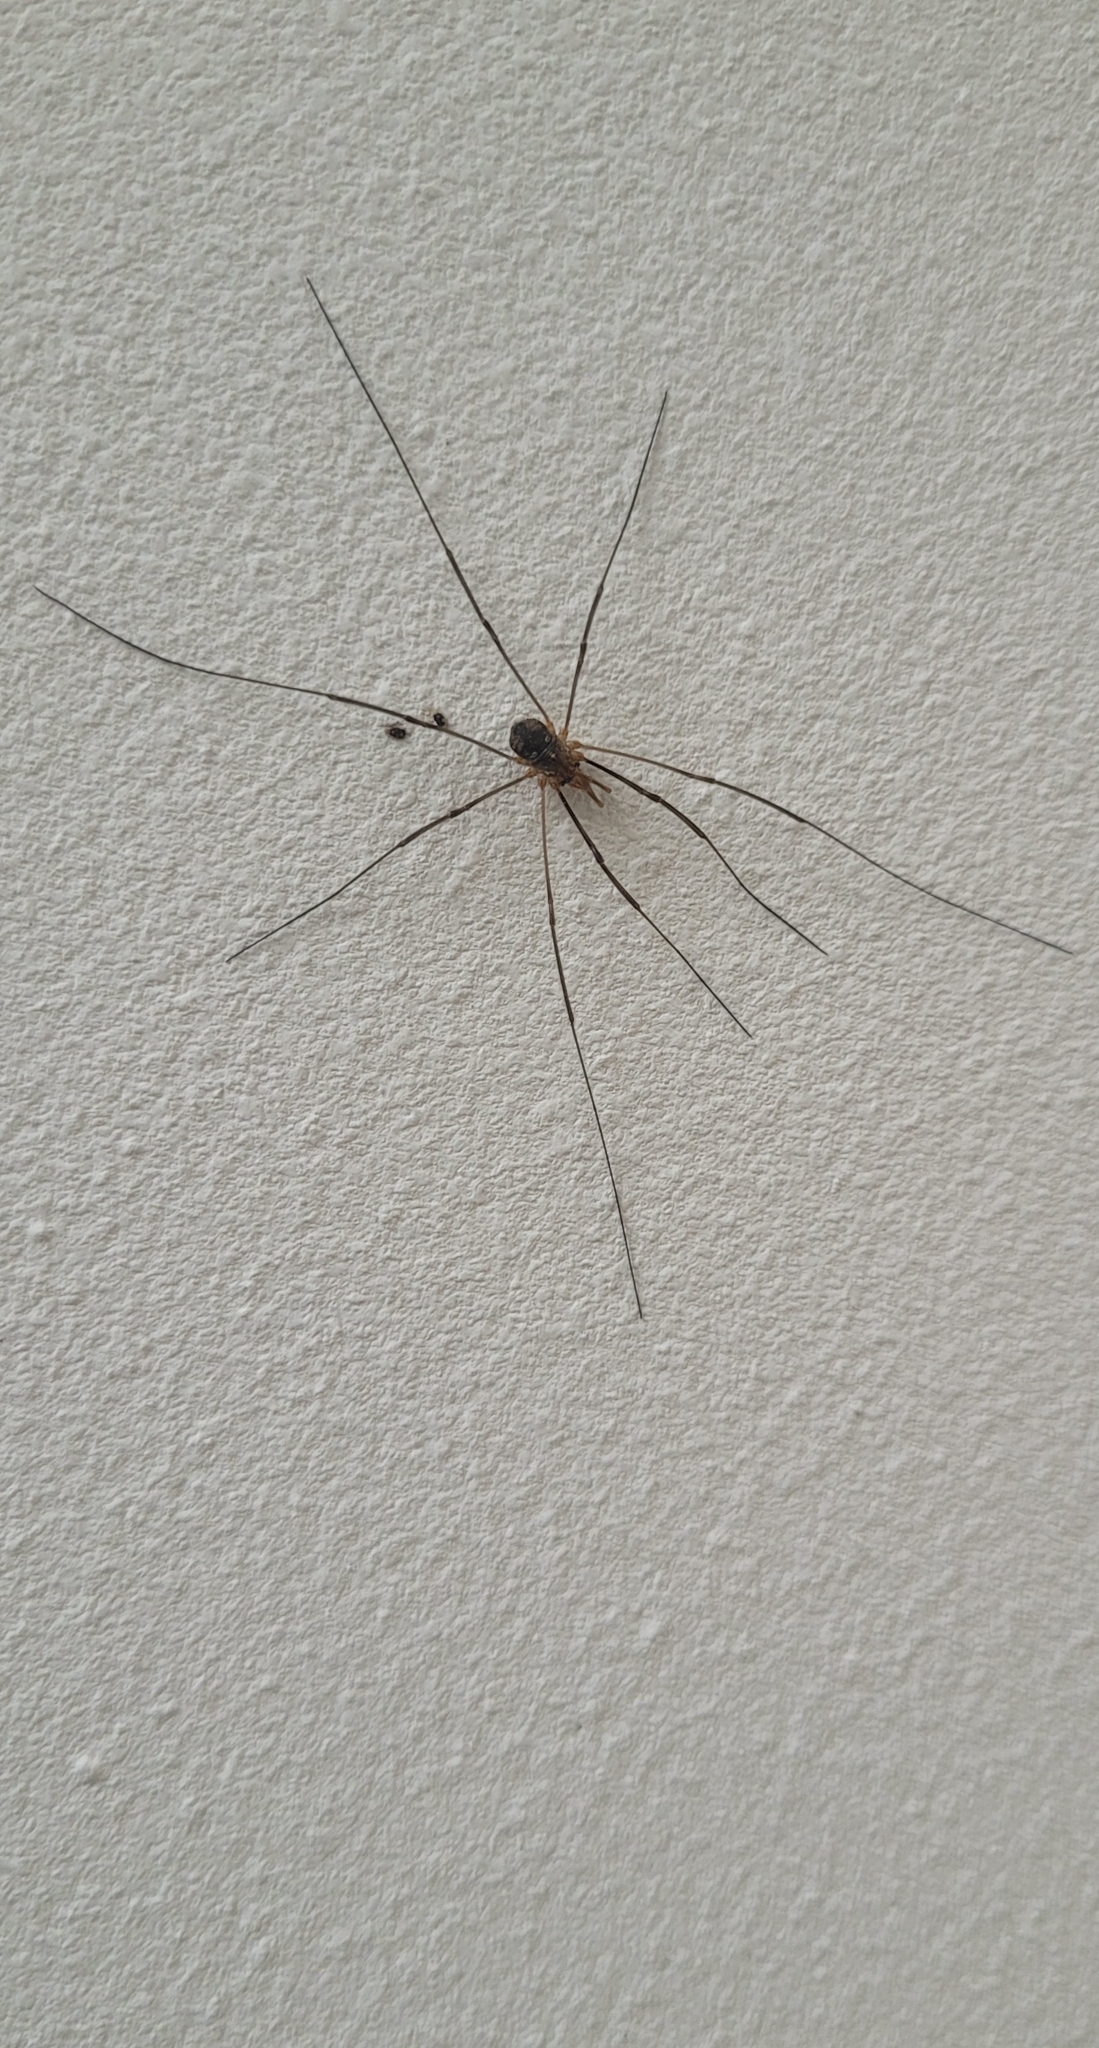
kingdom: Animalia
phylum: Arthropoda
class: Arachnida
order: Opiliones
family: Phalangiidae
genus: Phalangium
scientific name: Phalangium opilio
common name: Daddy longleg
